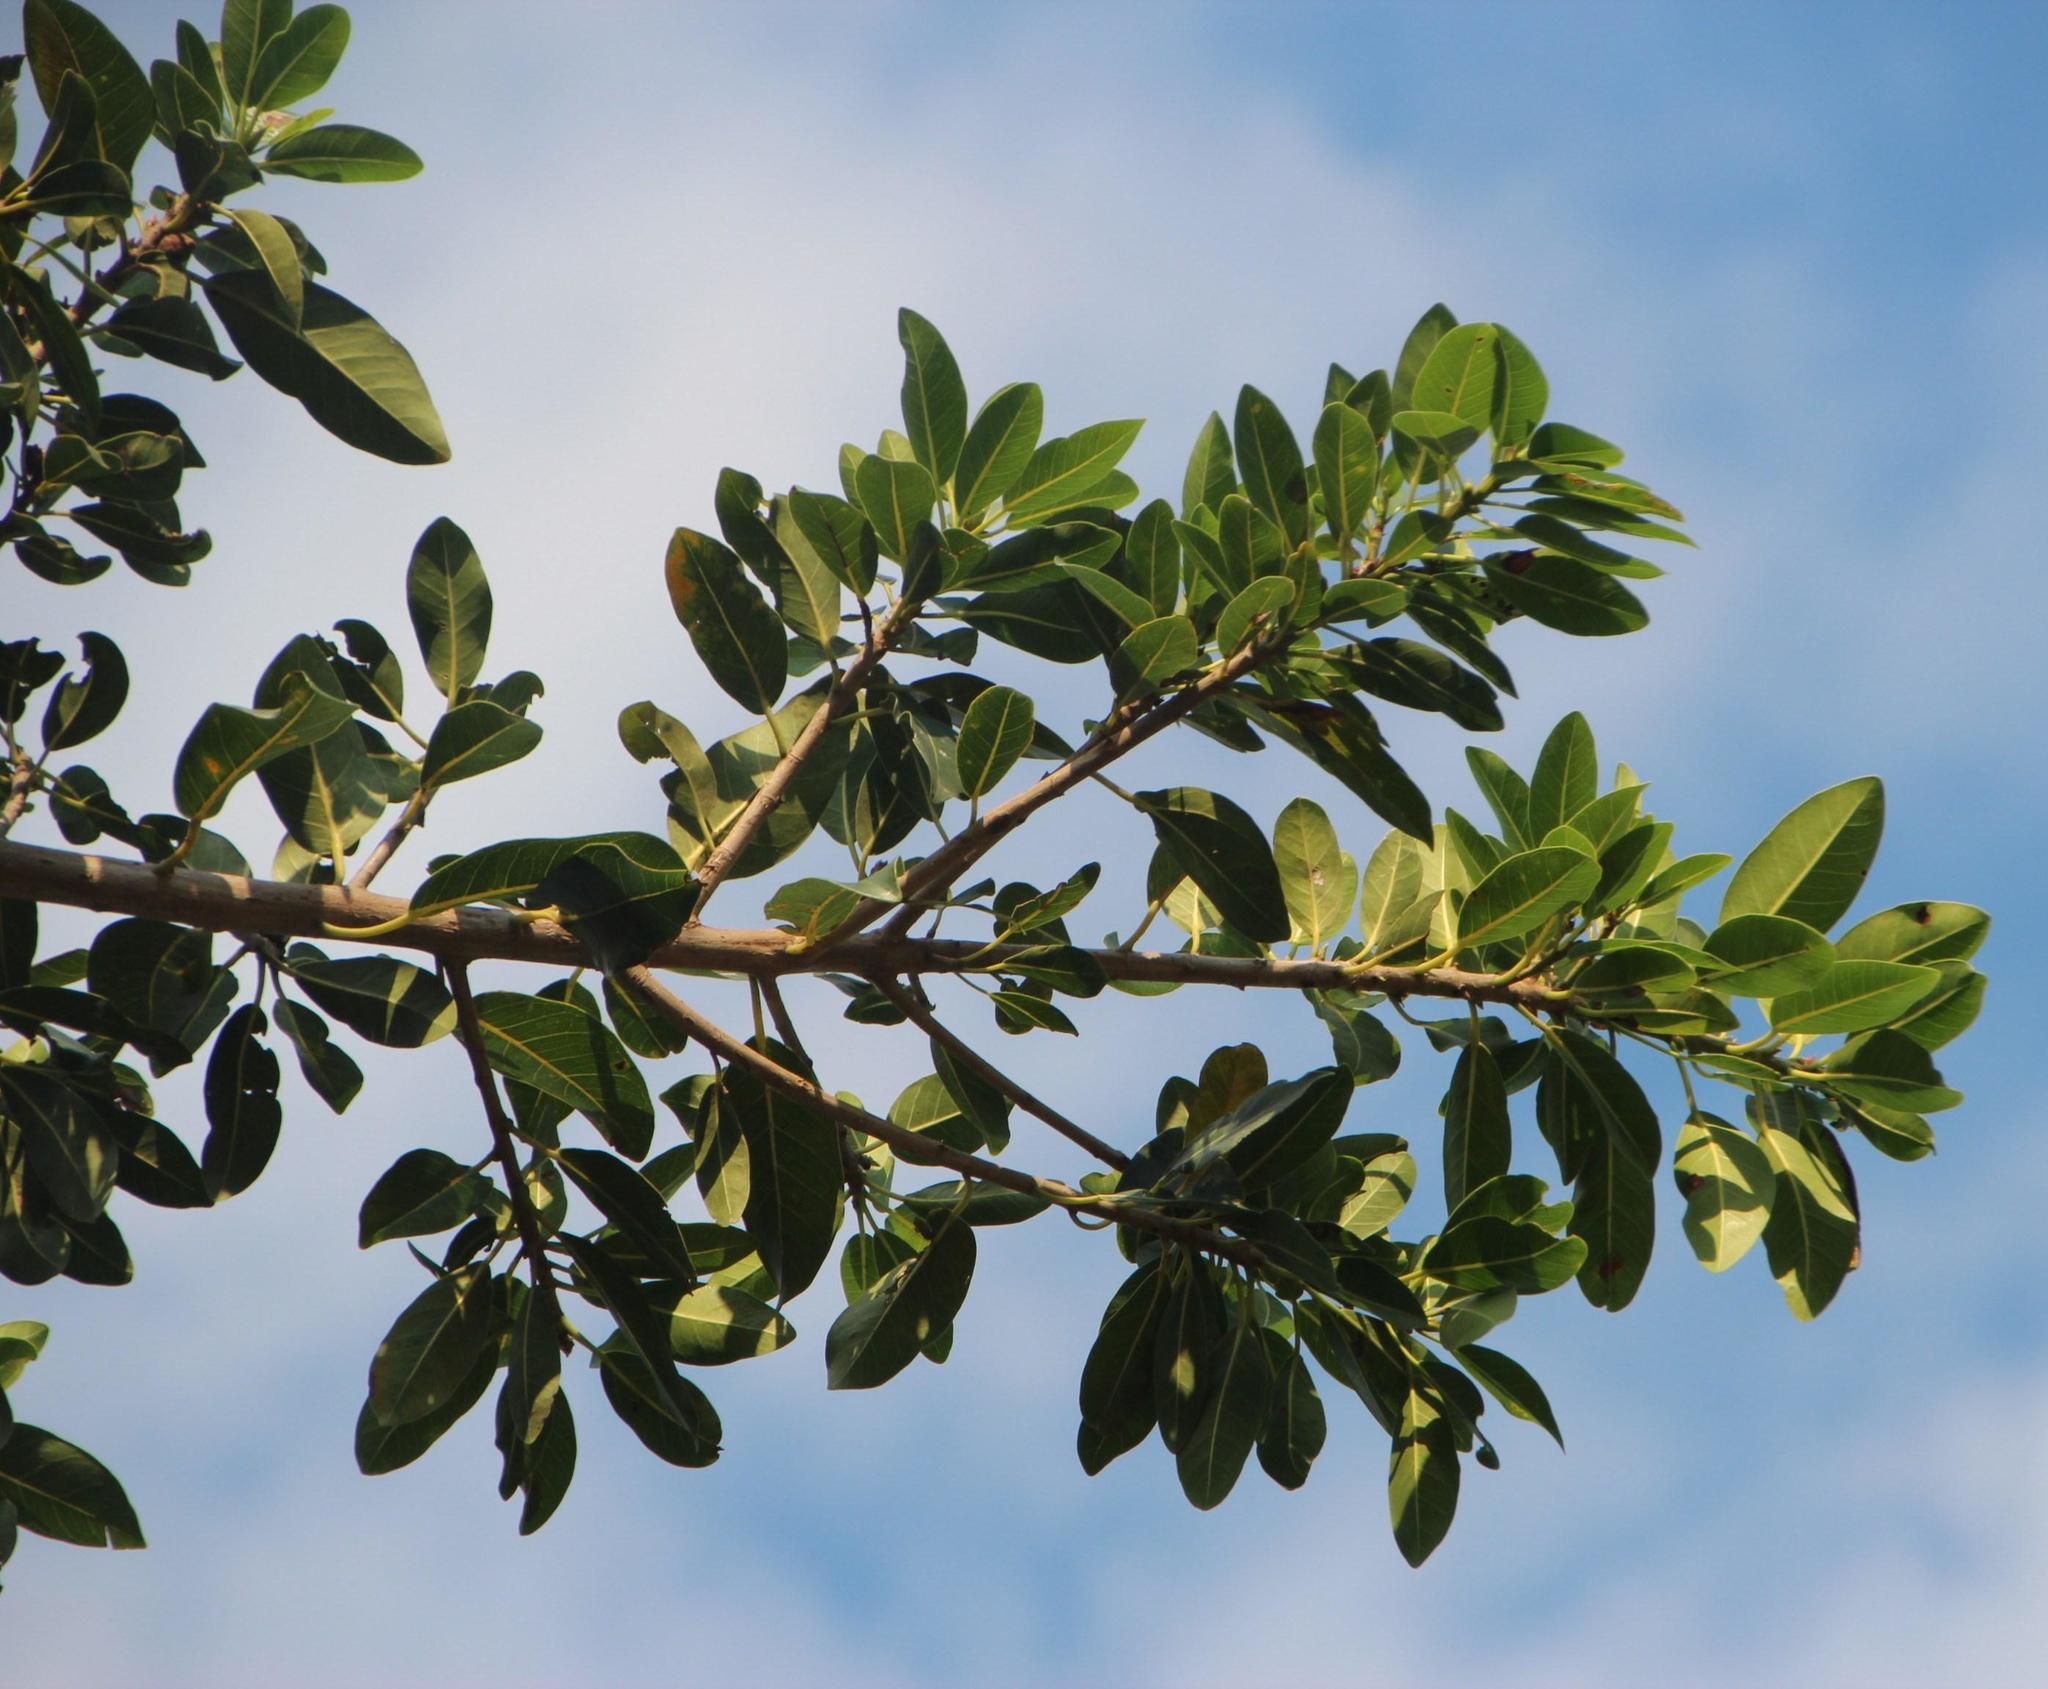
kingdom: Plantae
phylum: Tracheophyta
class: Magnoliopsida
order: Rosales
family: Moraceae
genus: Ficus
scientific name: Ficus thonningii
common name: Fig
